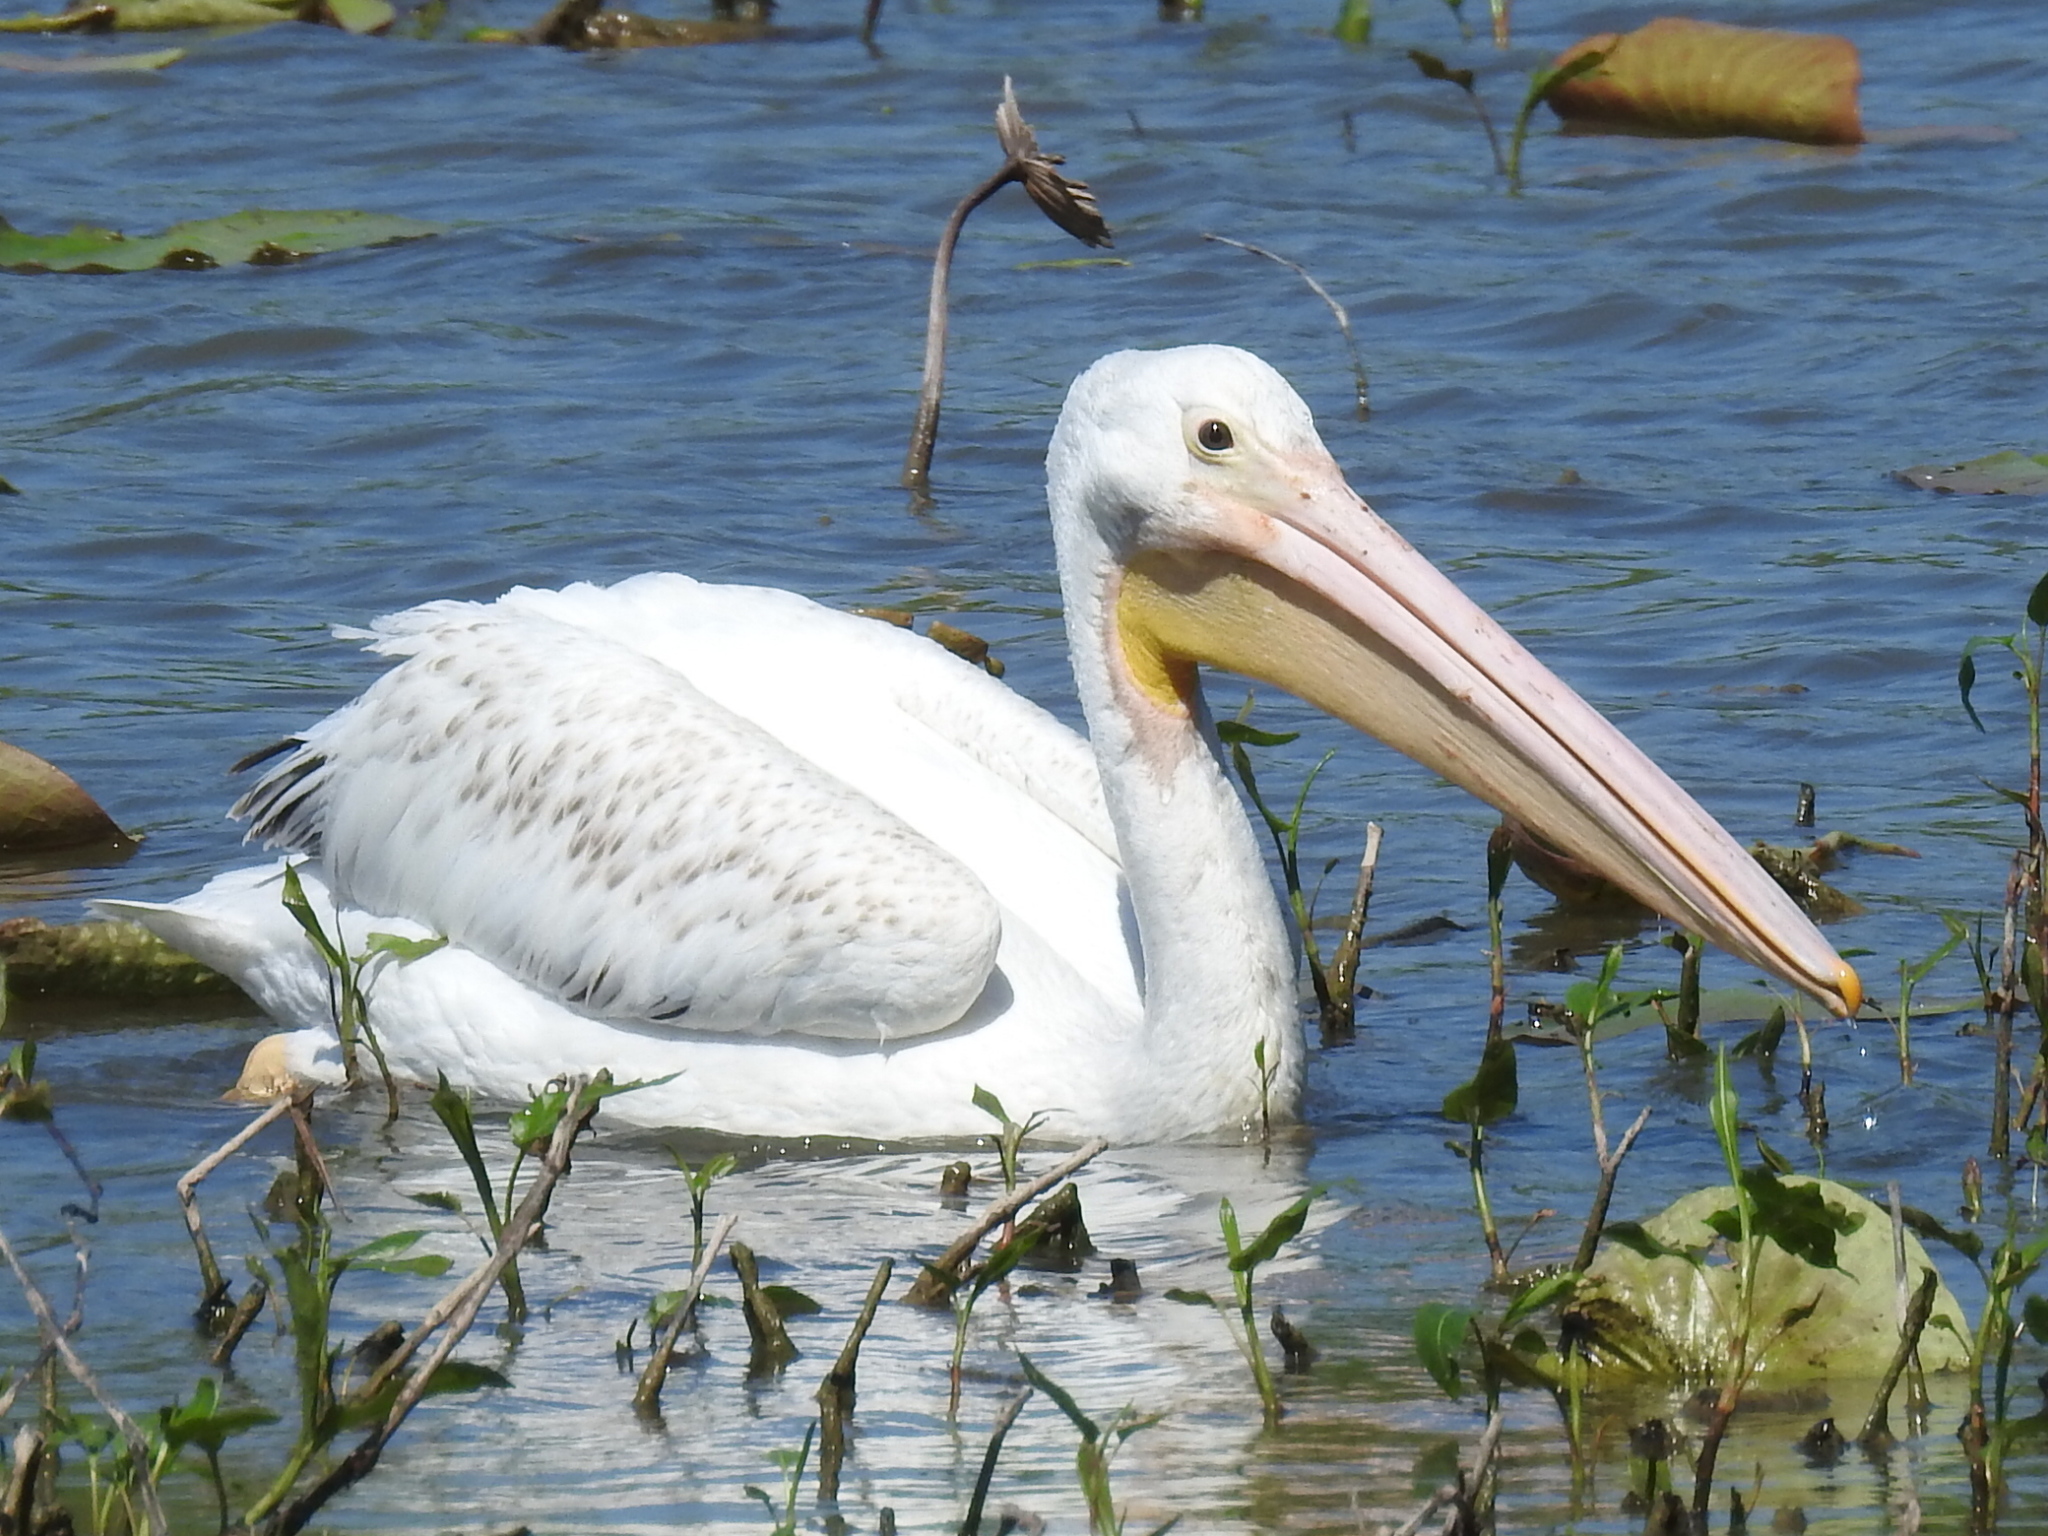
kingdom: Animalia
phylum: Chordata
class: Aves
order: Pelecaniformes
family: Pelecanidae
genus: Pelecanus
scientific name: Pelecanus erythrorhynchos
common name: American white pelican
